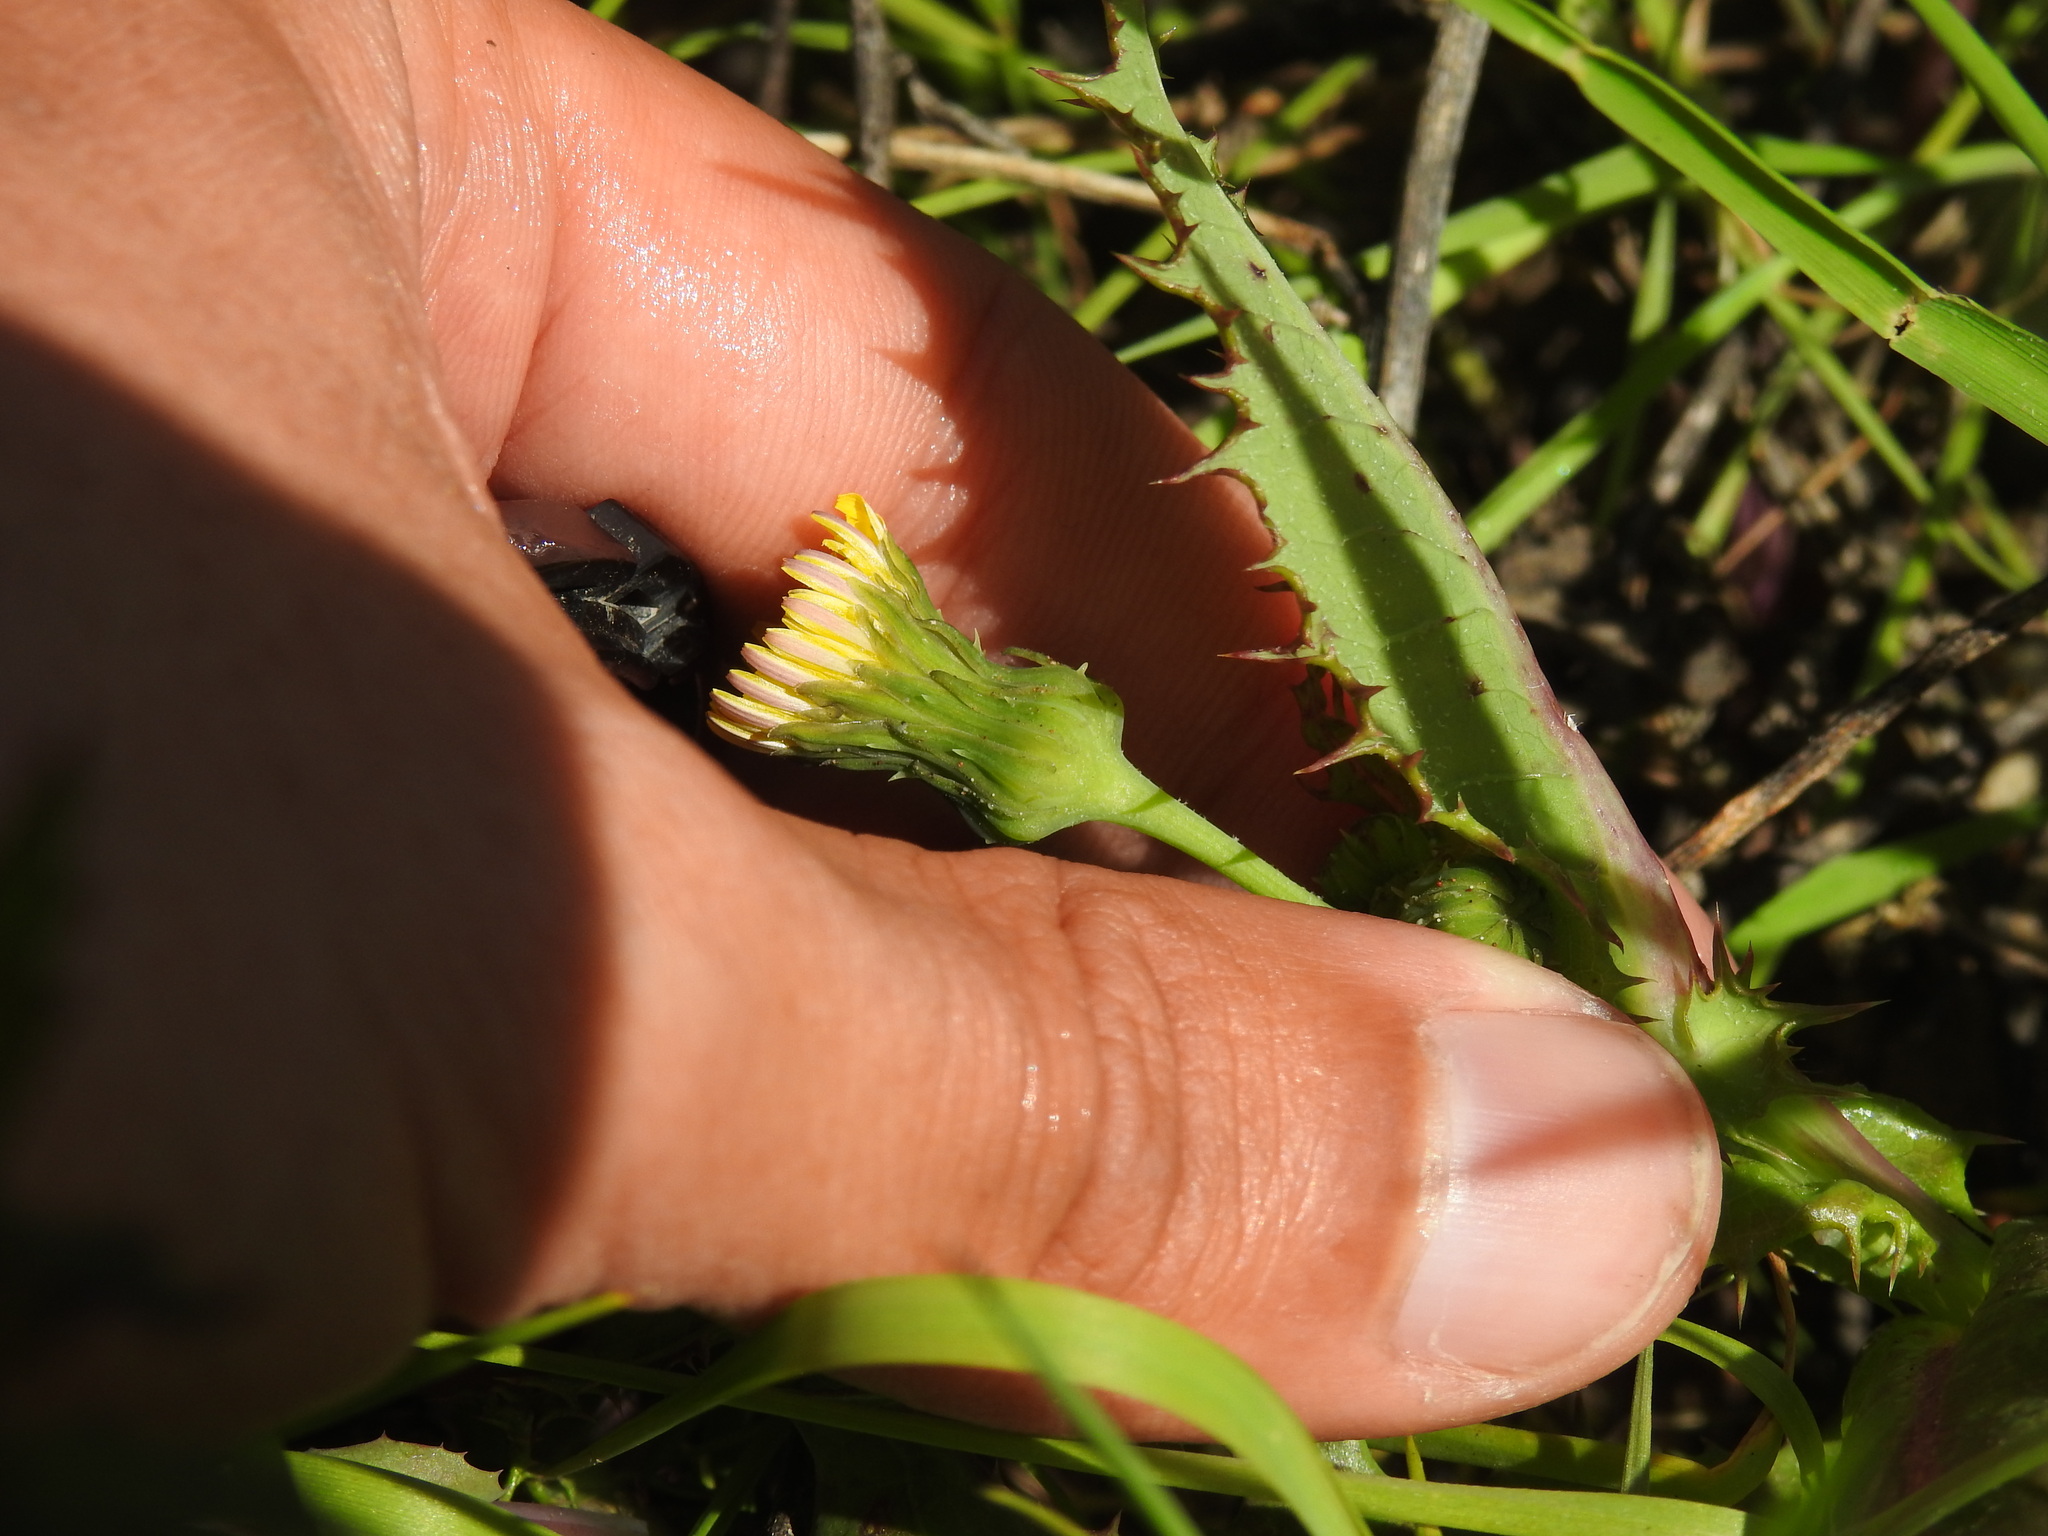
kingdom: Plantae
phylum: Tracheophyta
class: Magnoliopsida
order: Asterales
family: Asteraceae
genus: Sonchus
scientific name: Sonchus asper
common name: Prickly sow-thistle
